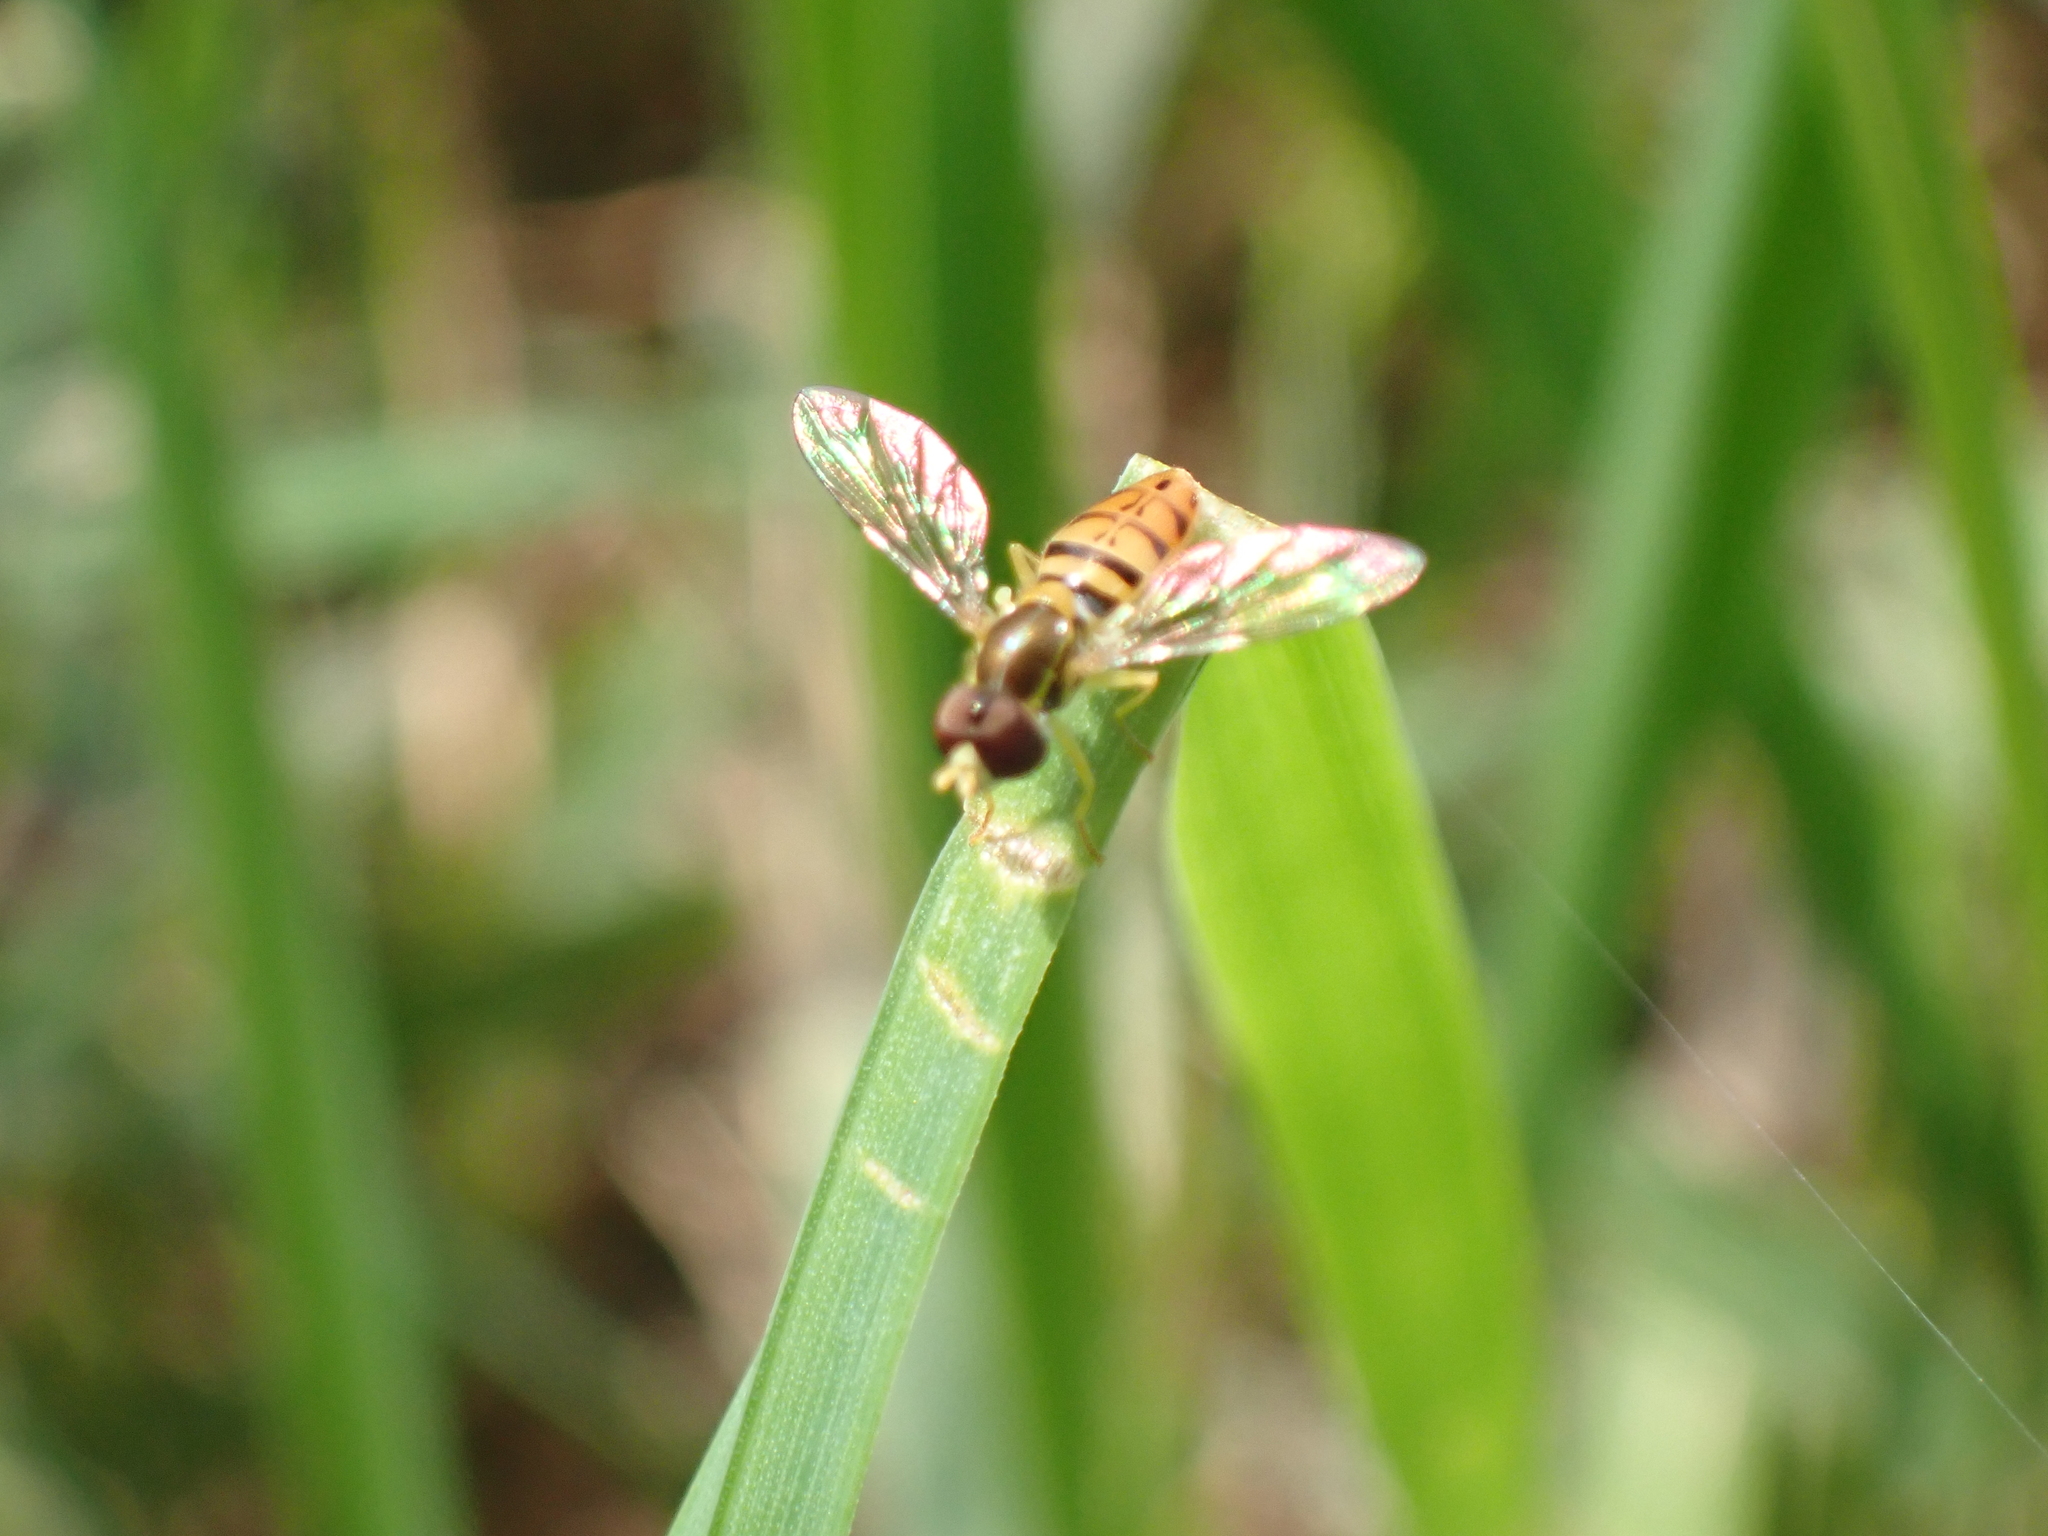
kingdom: Animalia
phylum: Arthropoda
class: Insecta
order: Diptera
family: Syrphidae
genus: Toxomerus
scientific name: Toxomerus marginatus
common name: Syrphid fly
